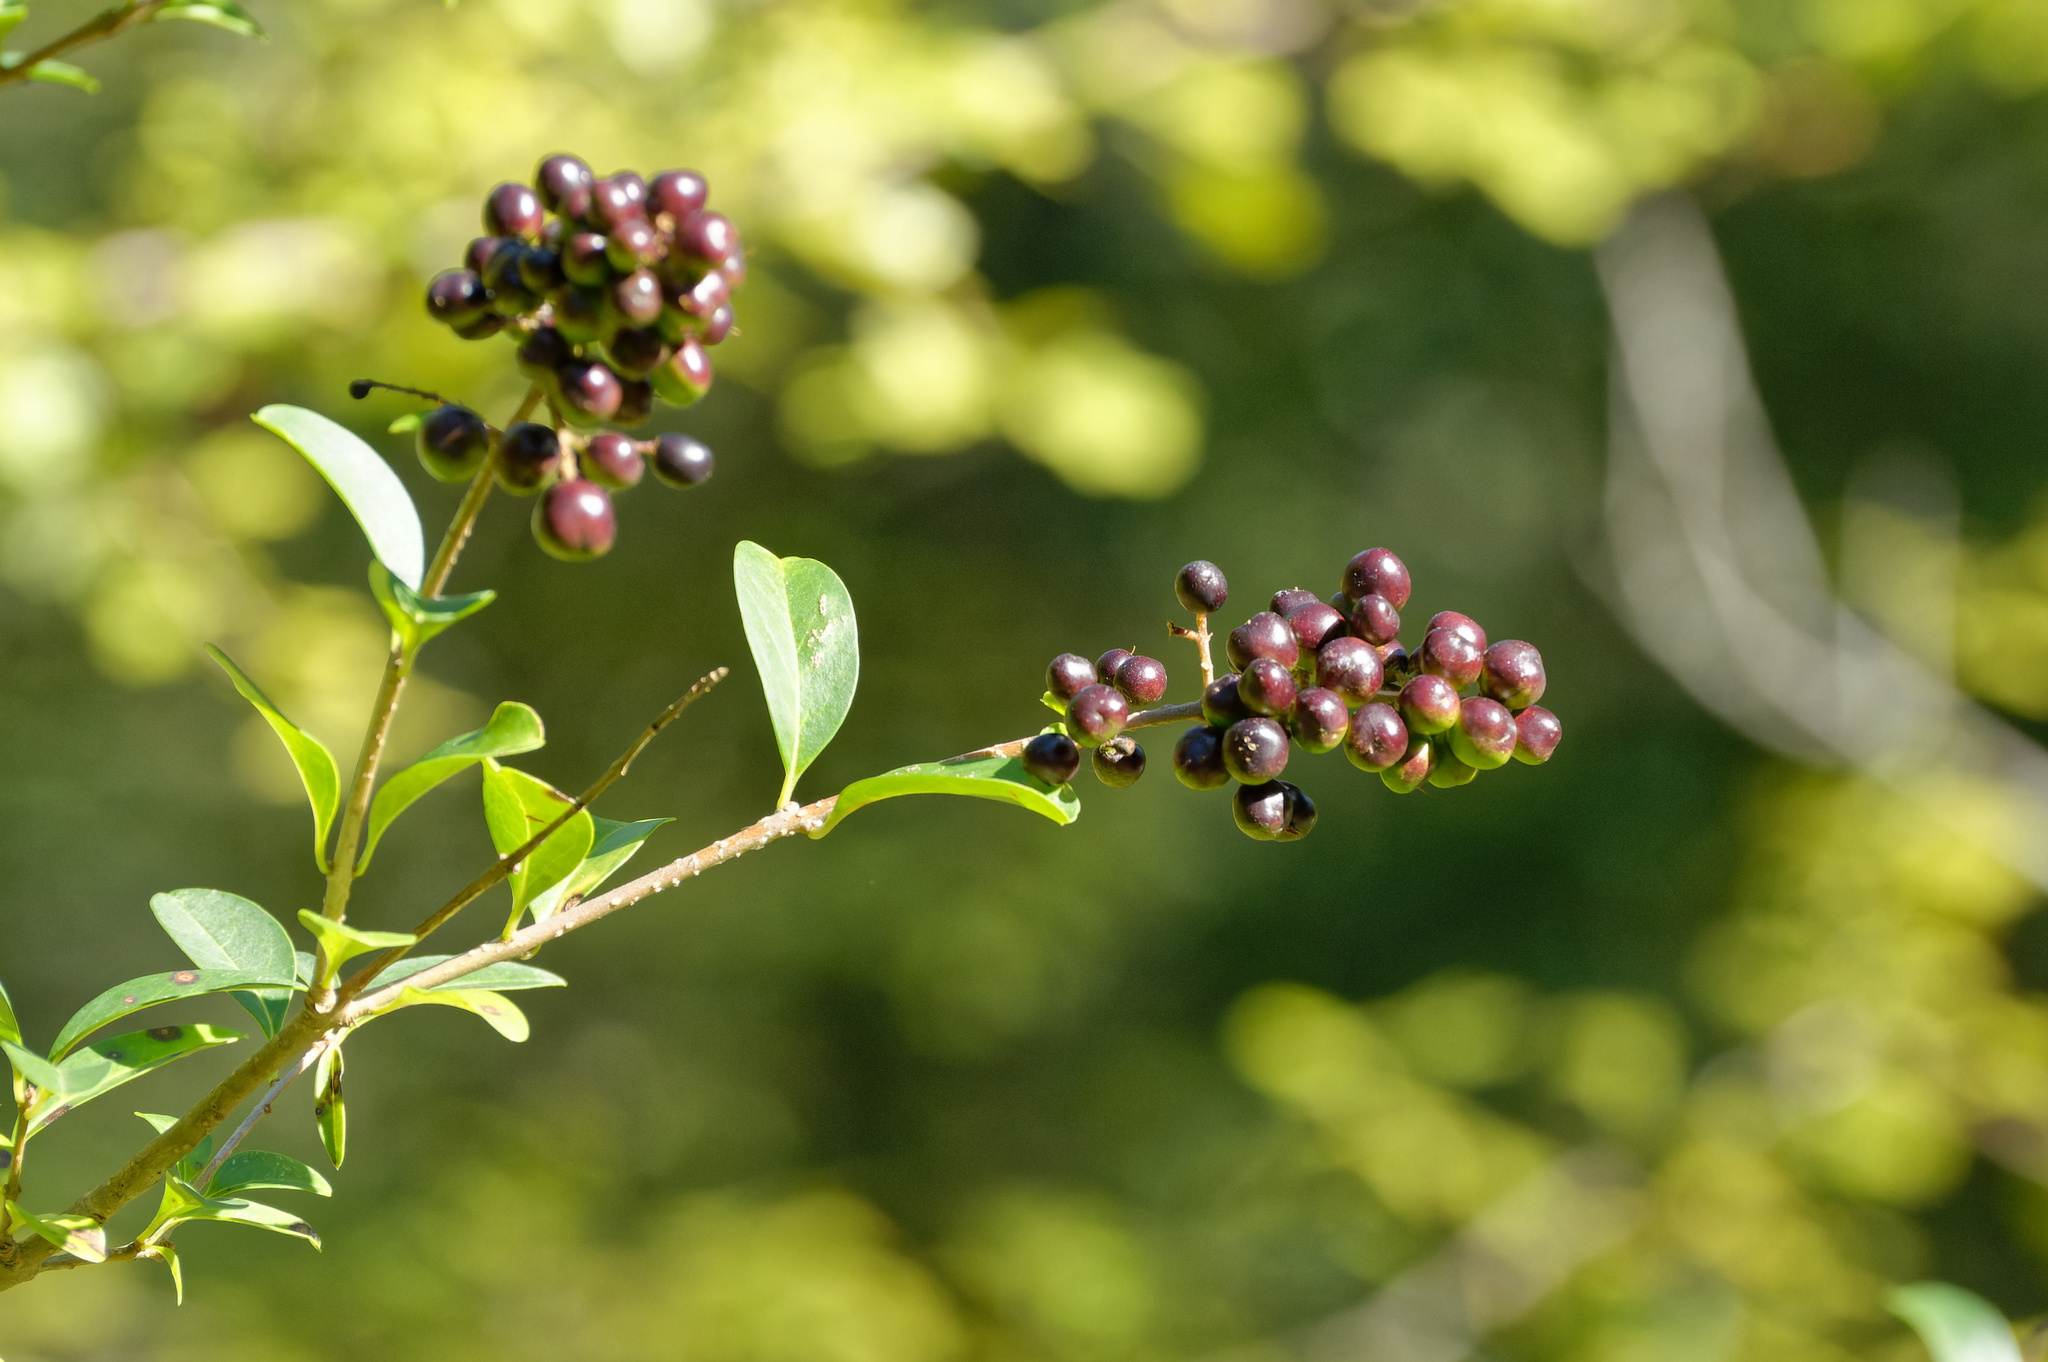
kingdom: Plantae
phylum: Tracheophyta
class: Magnoliopsida
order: Lamiales
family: Oleaceae
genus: Ligustrum
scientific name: Ligustrum vulgare
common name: Wild privet
